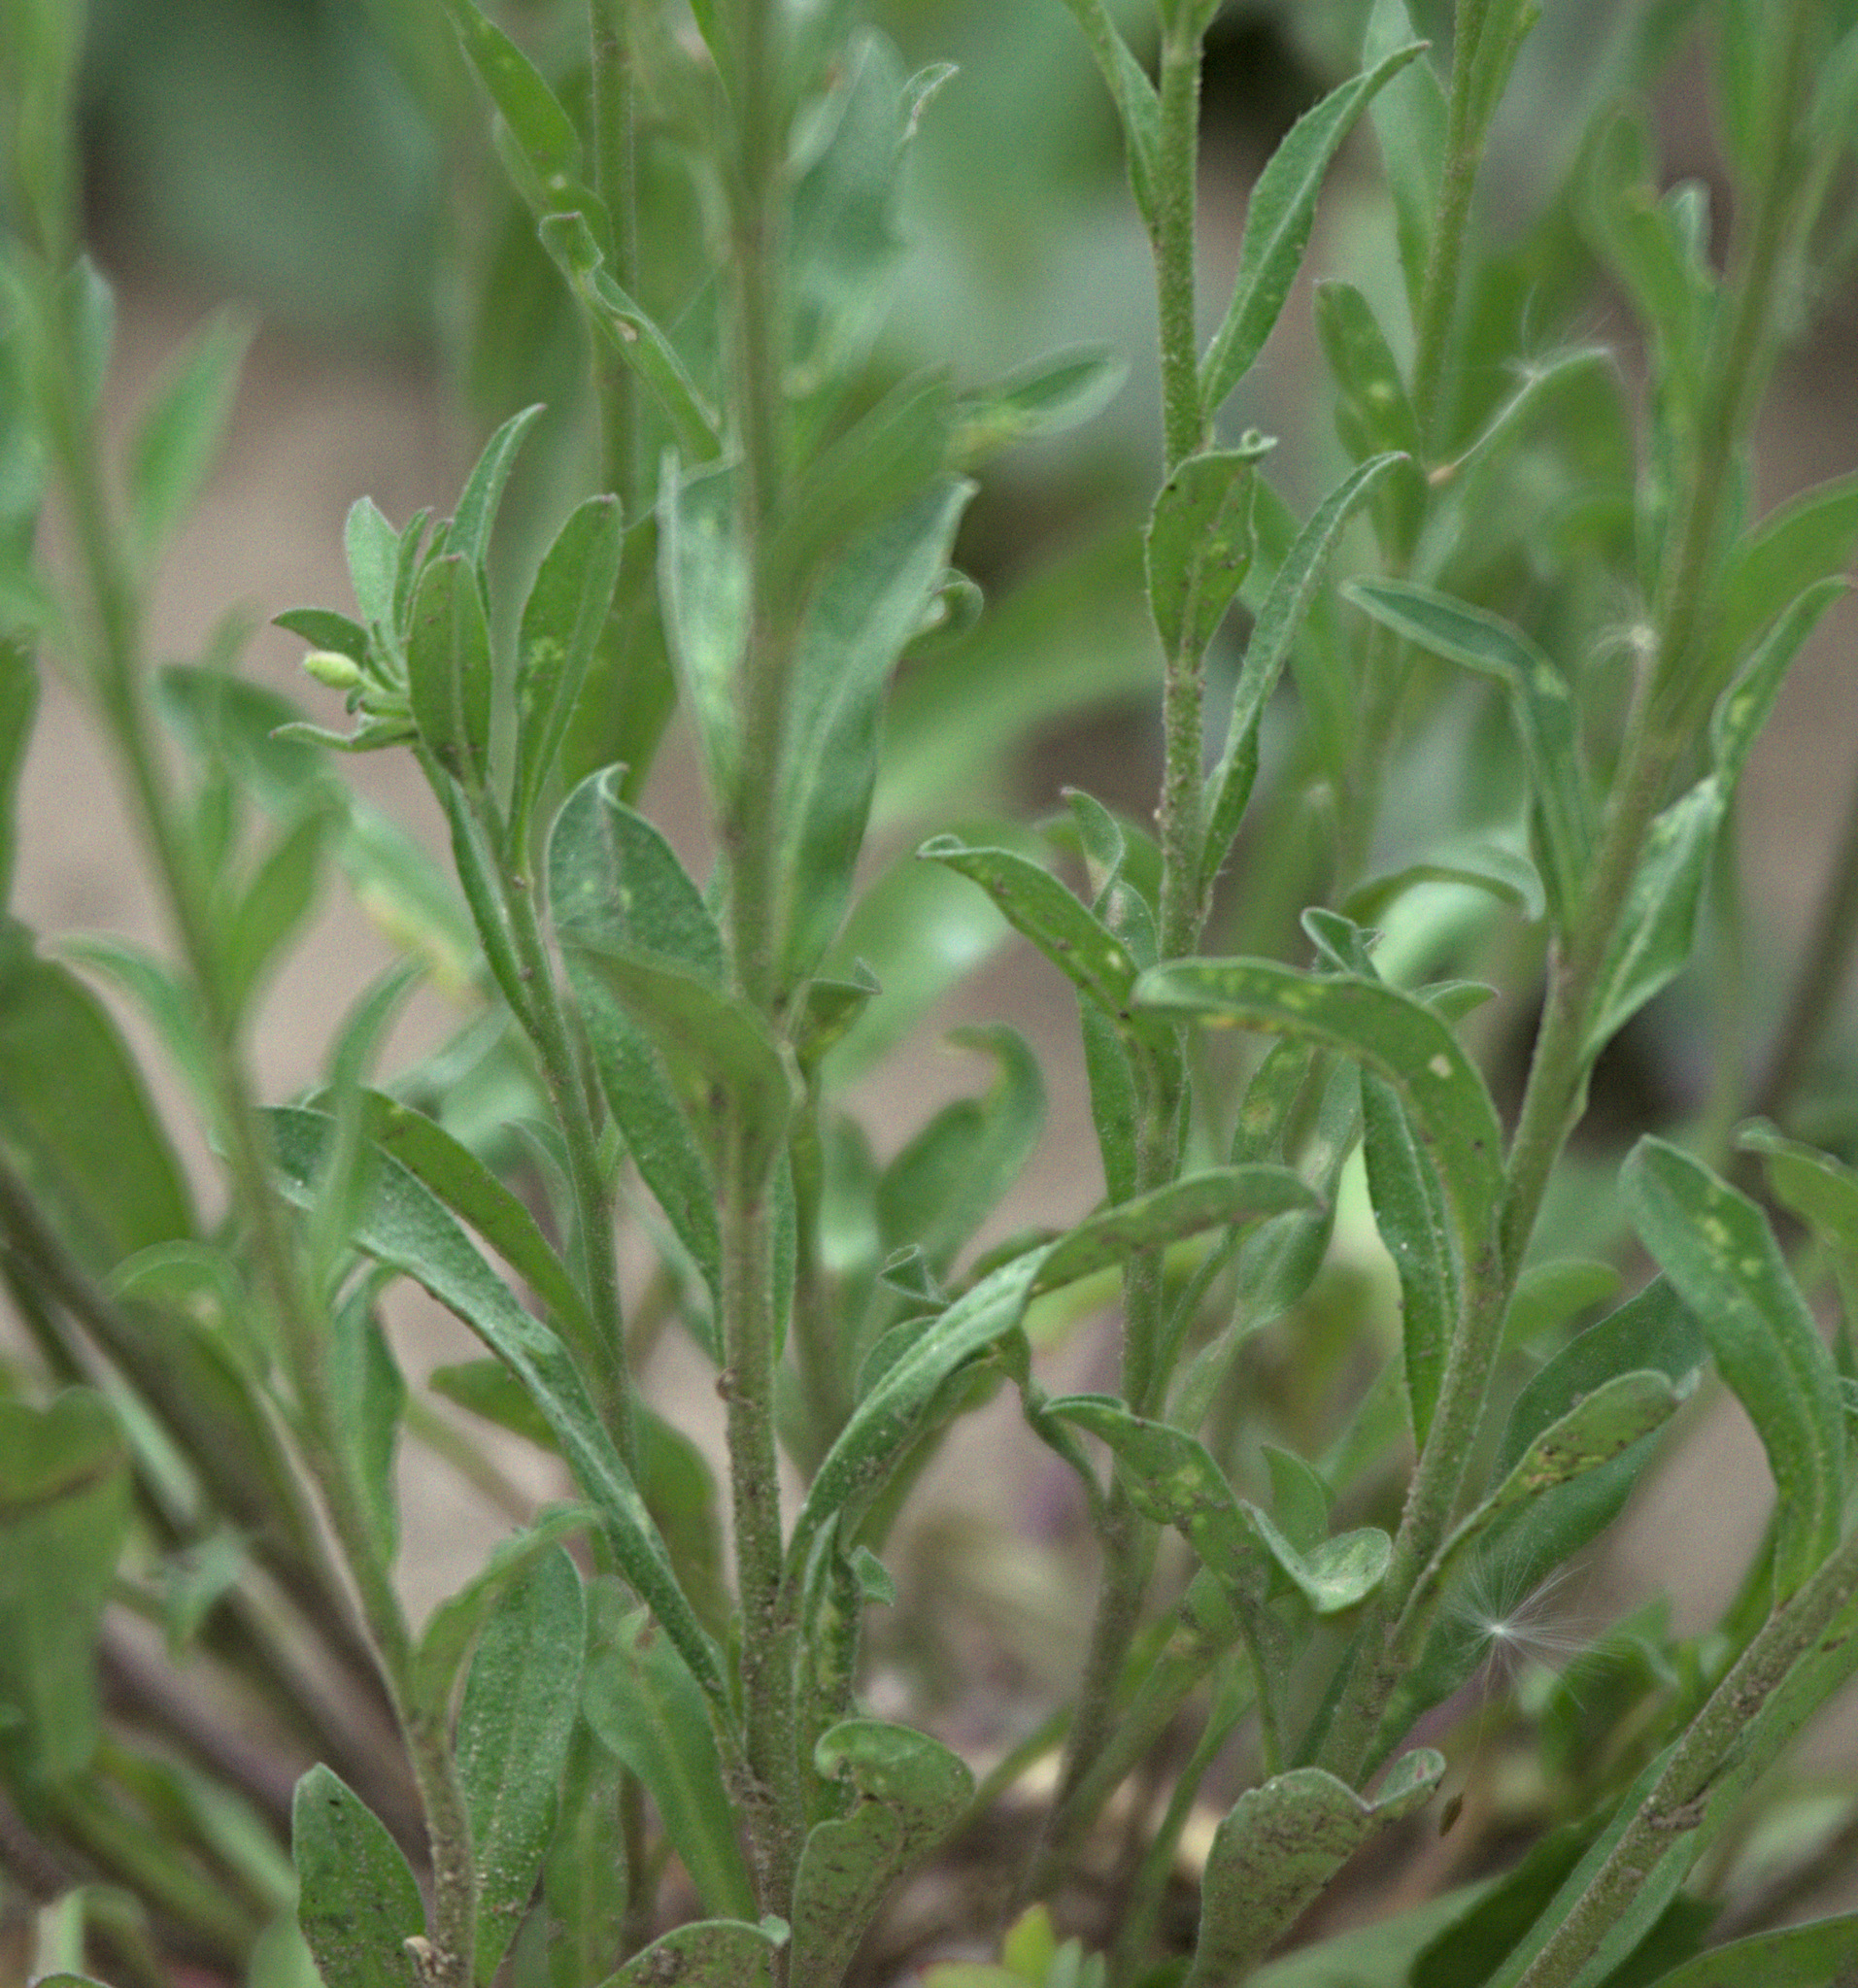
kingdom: Plantae
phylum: Tracheophyta
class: Magnoliopsida
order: Brassicales
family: Brassicaceae
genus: Berteroa
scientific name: Berteroa incana
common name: Hoary alison
